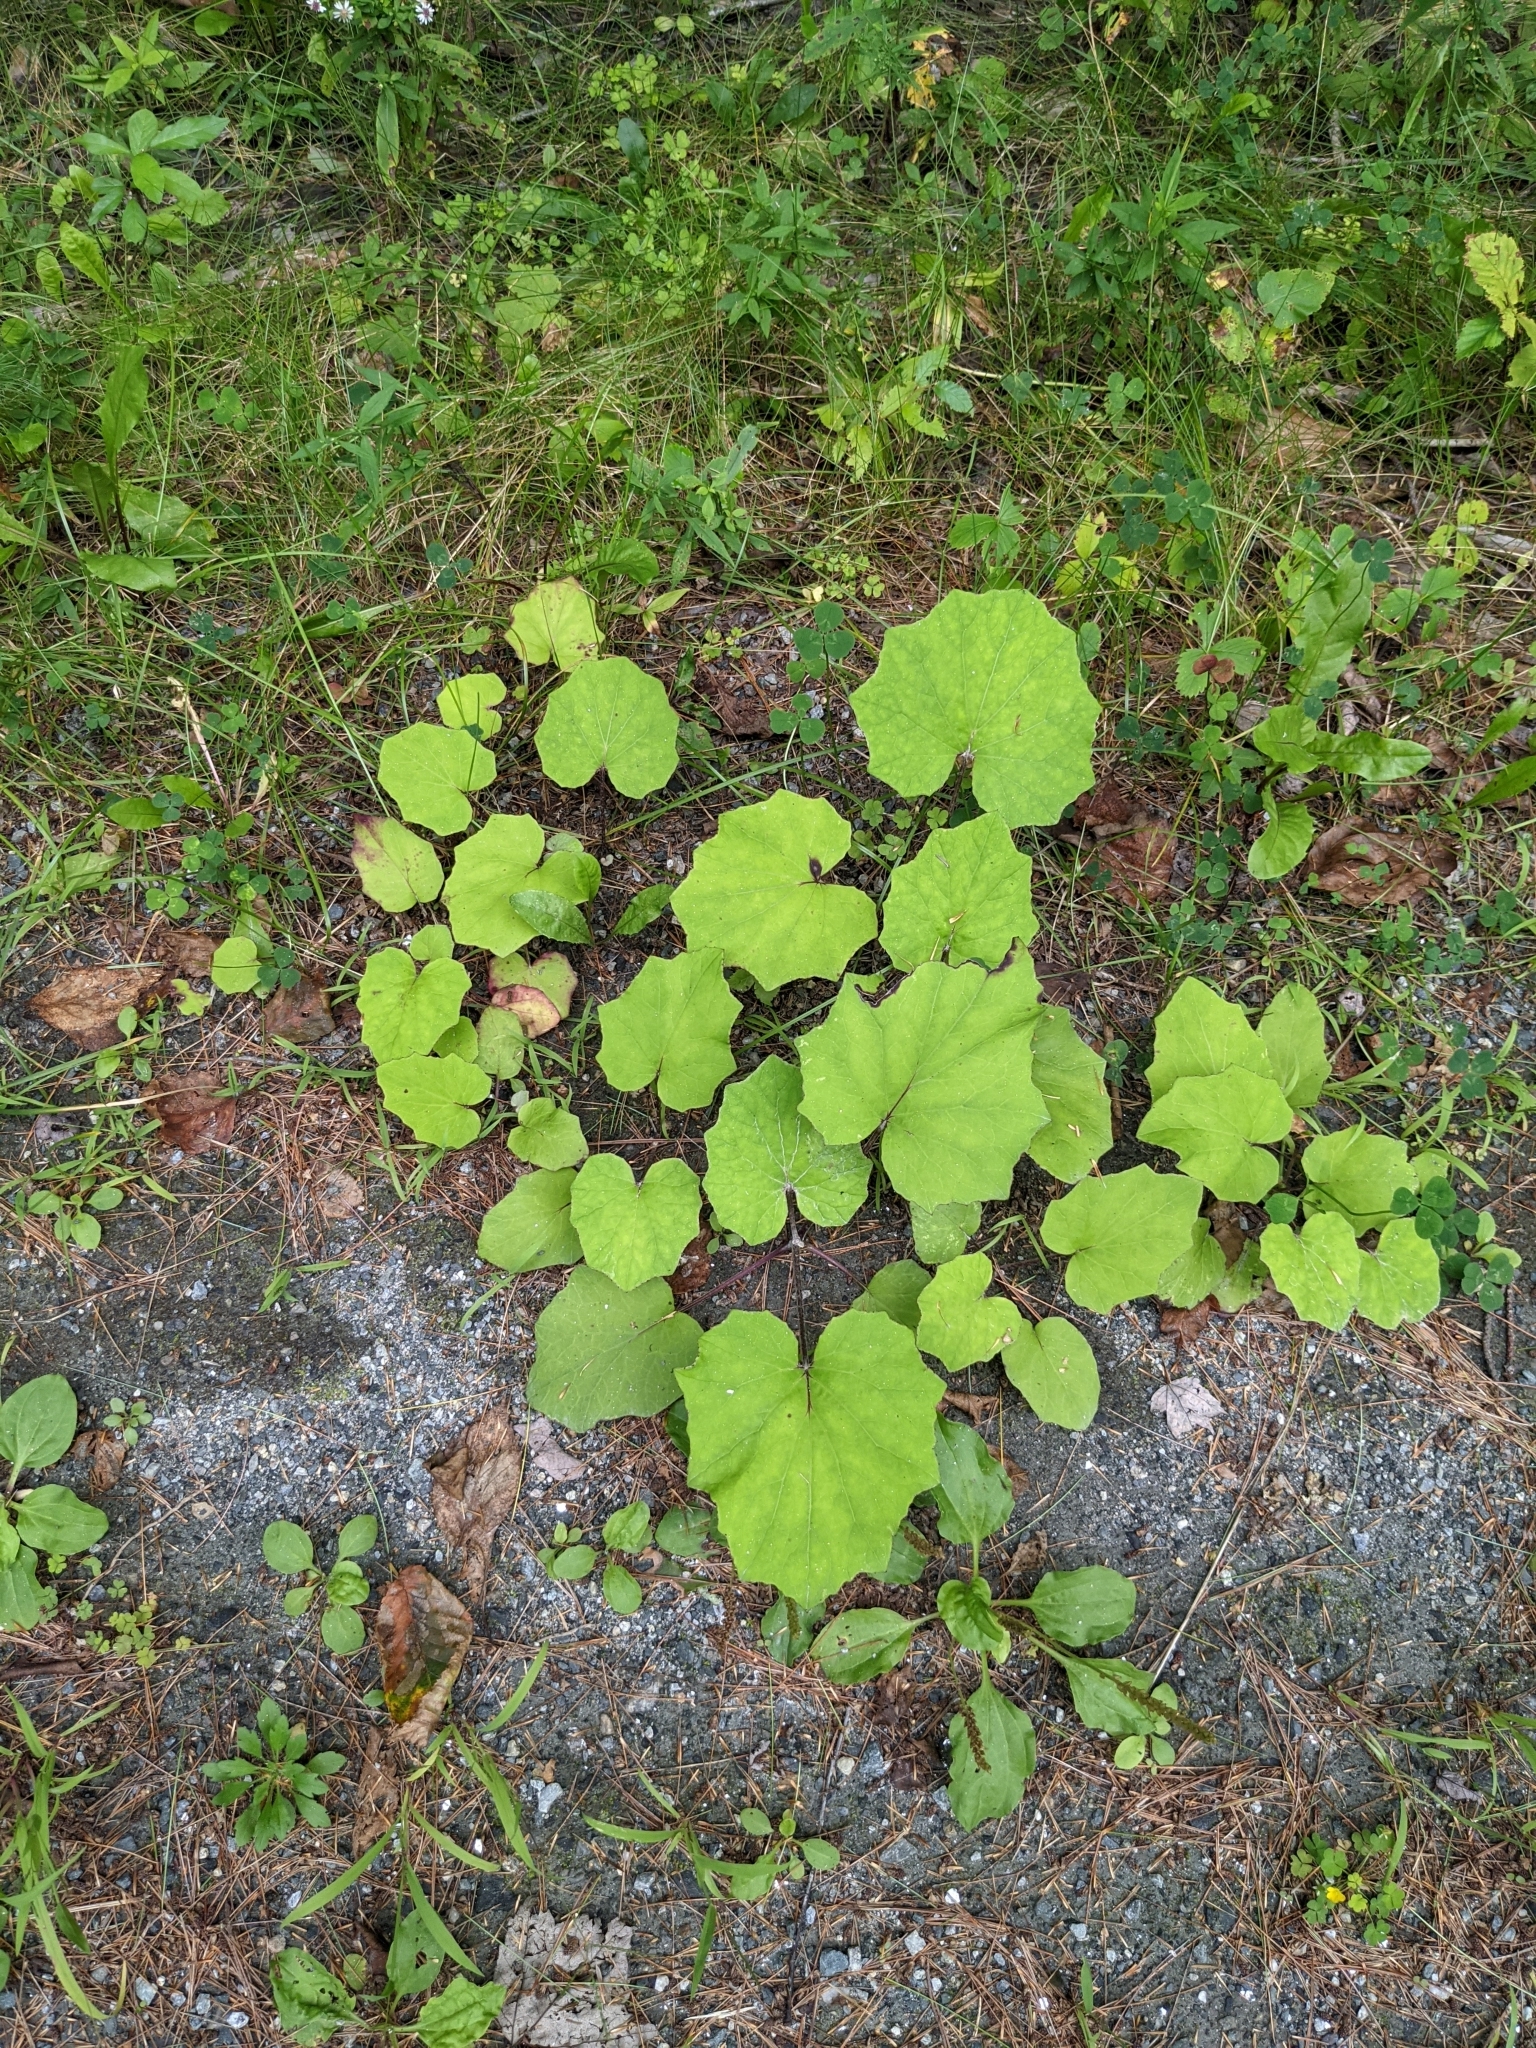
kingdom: Plantae
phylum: Tracheophyta
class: Magnoliopsida
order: Asterales
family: Asteraceae
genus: Tussilago
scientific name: Tussilago farfara
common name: Coltsfoot
